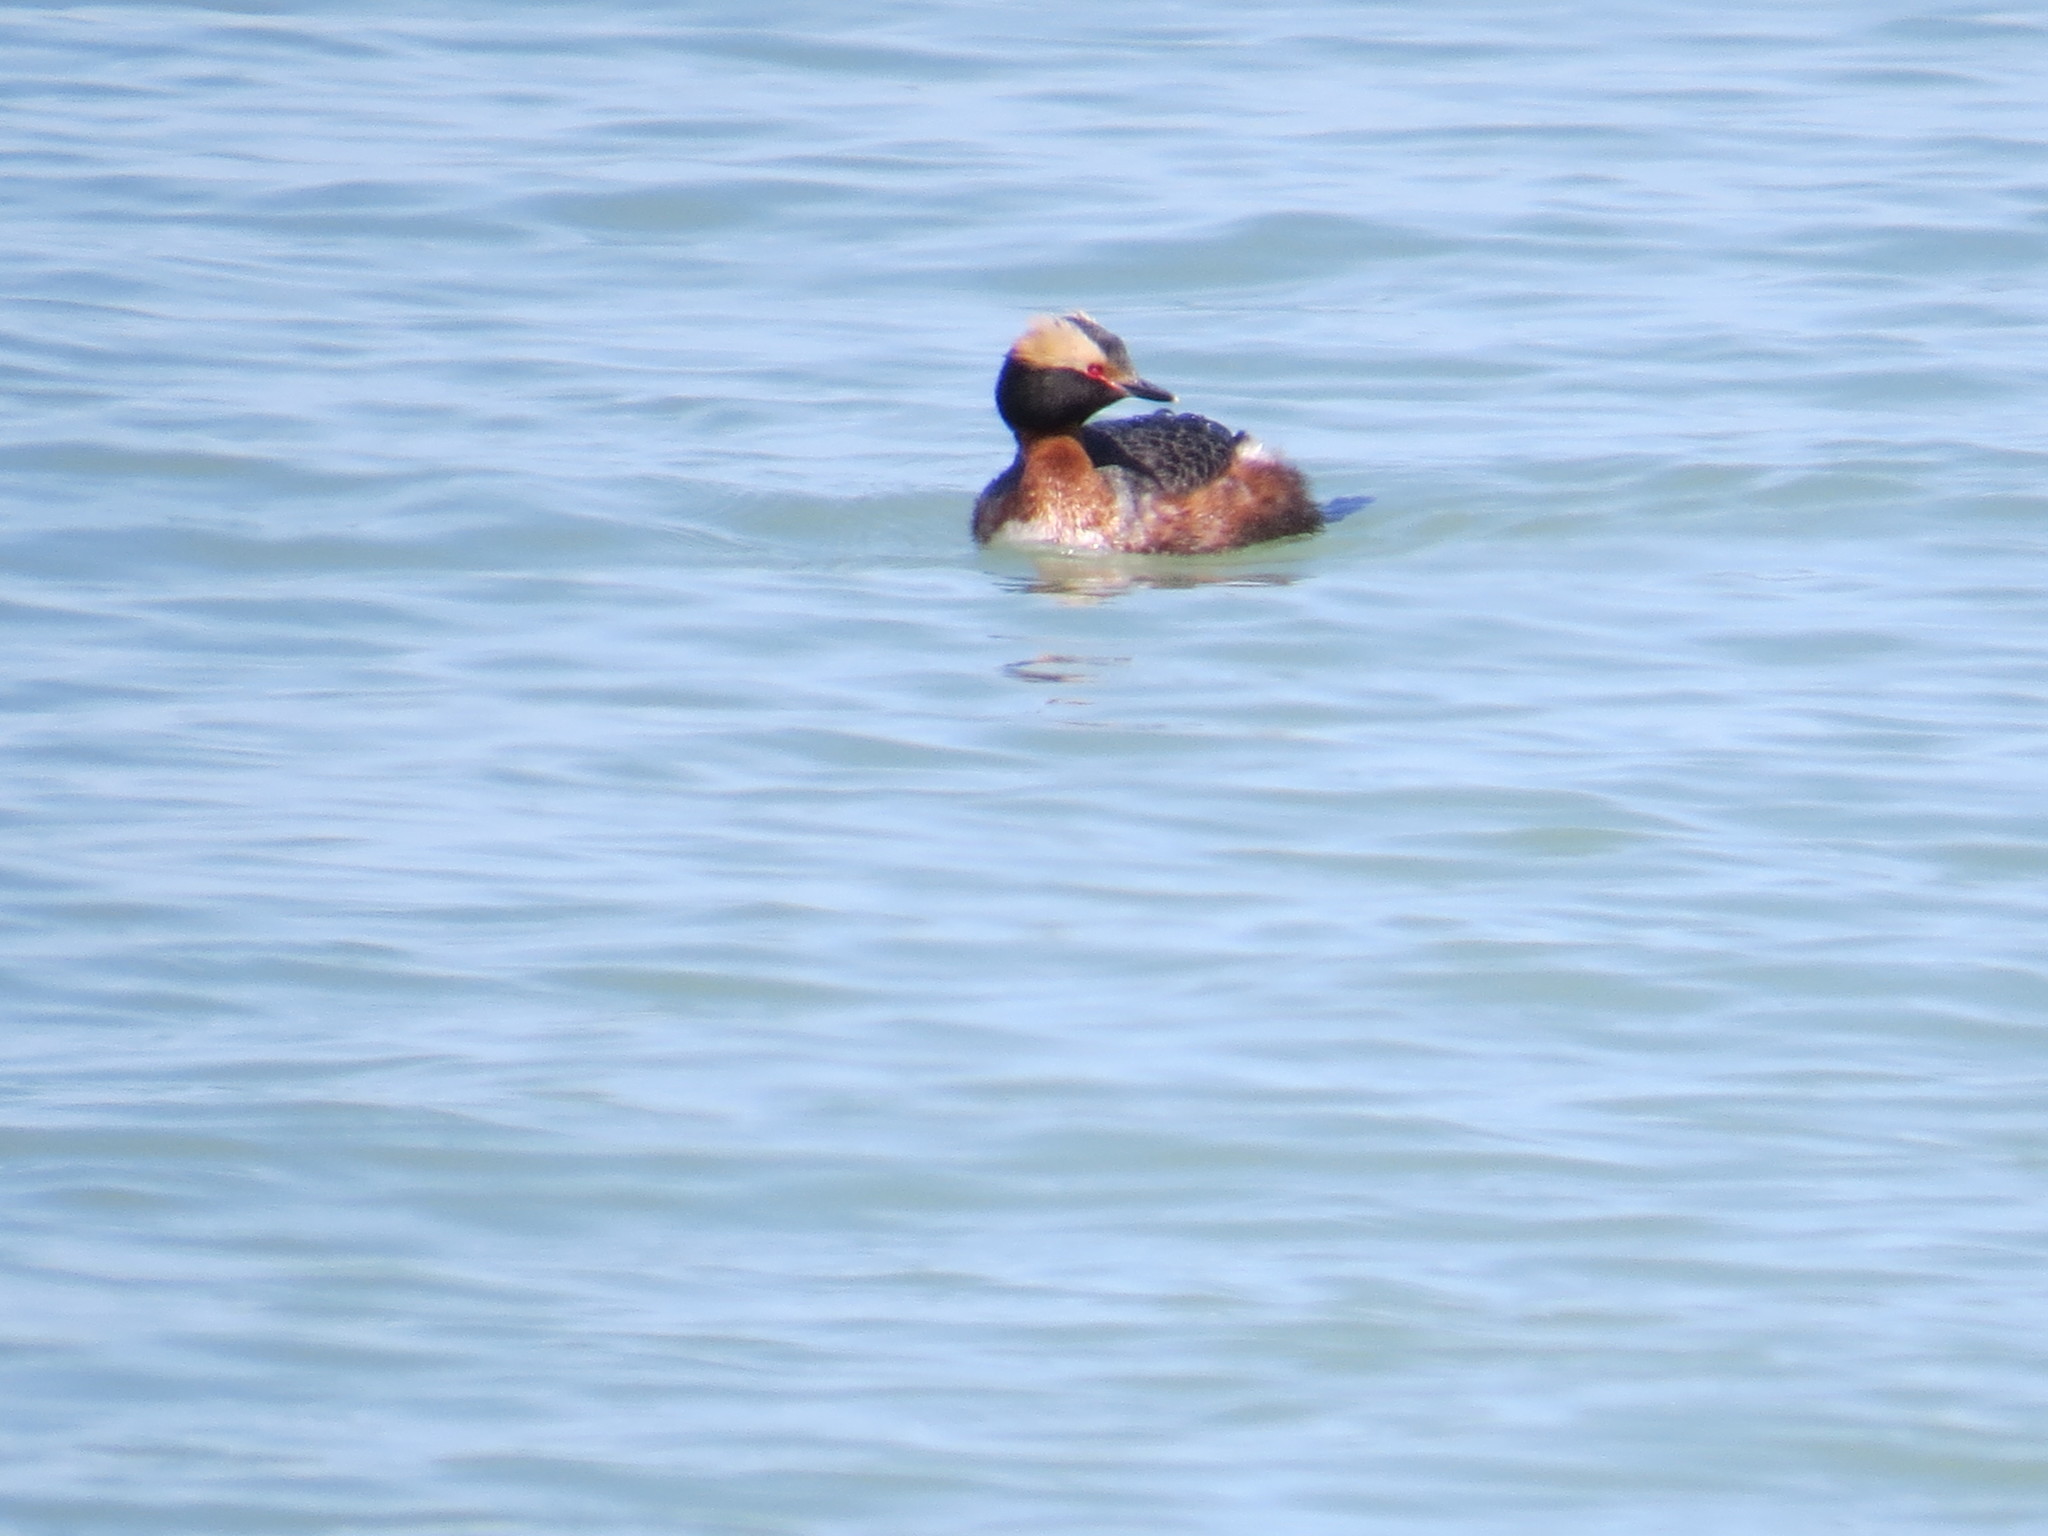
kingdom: Animalia
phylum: Chordata
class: Aves
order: Podicipediformes
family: Podicipedidae
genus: Podiceps
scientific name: Podiceps auritus
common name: Horned grebe
